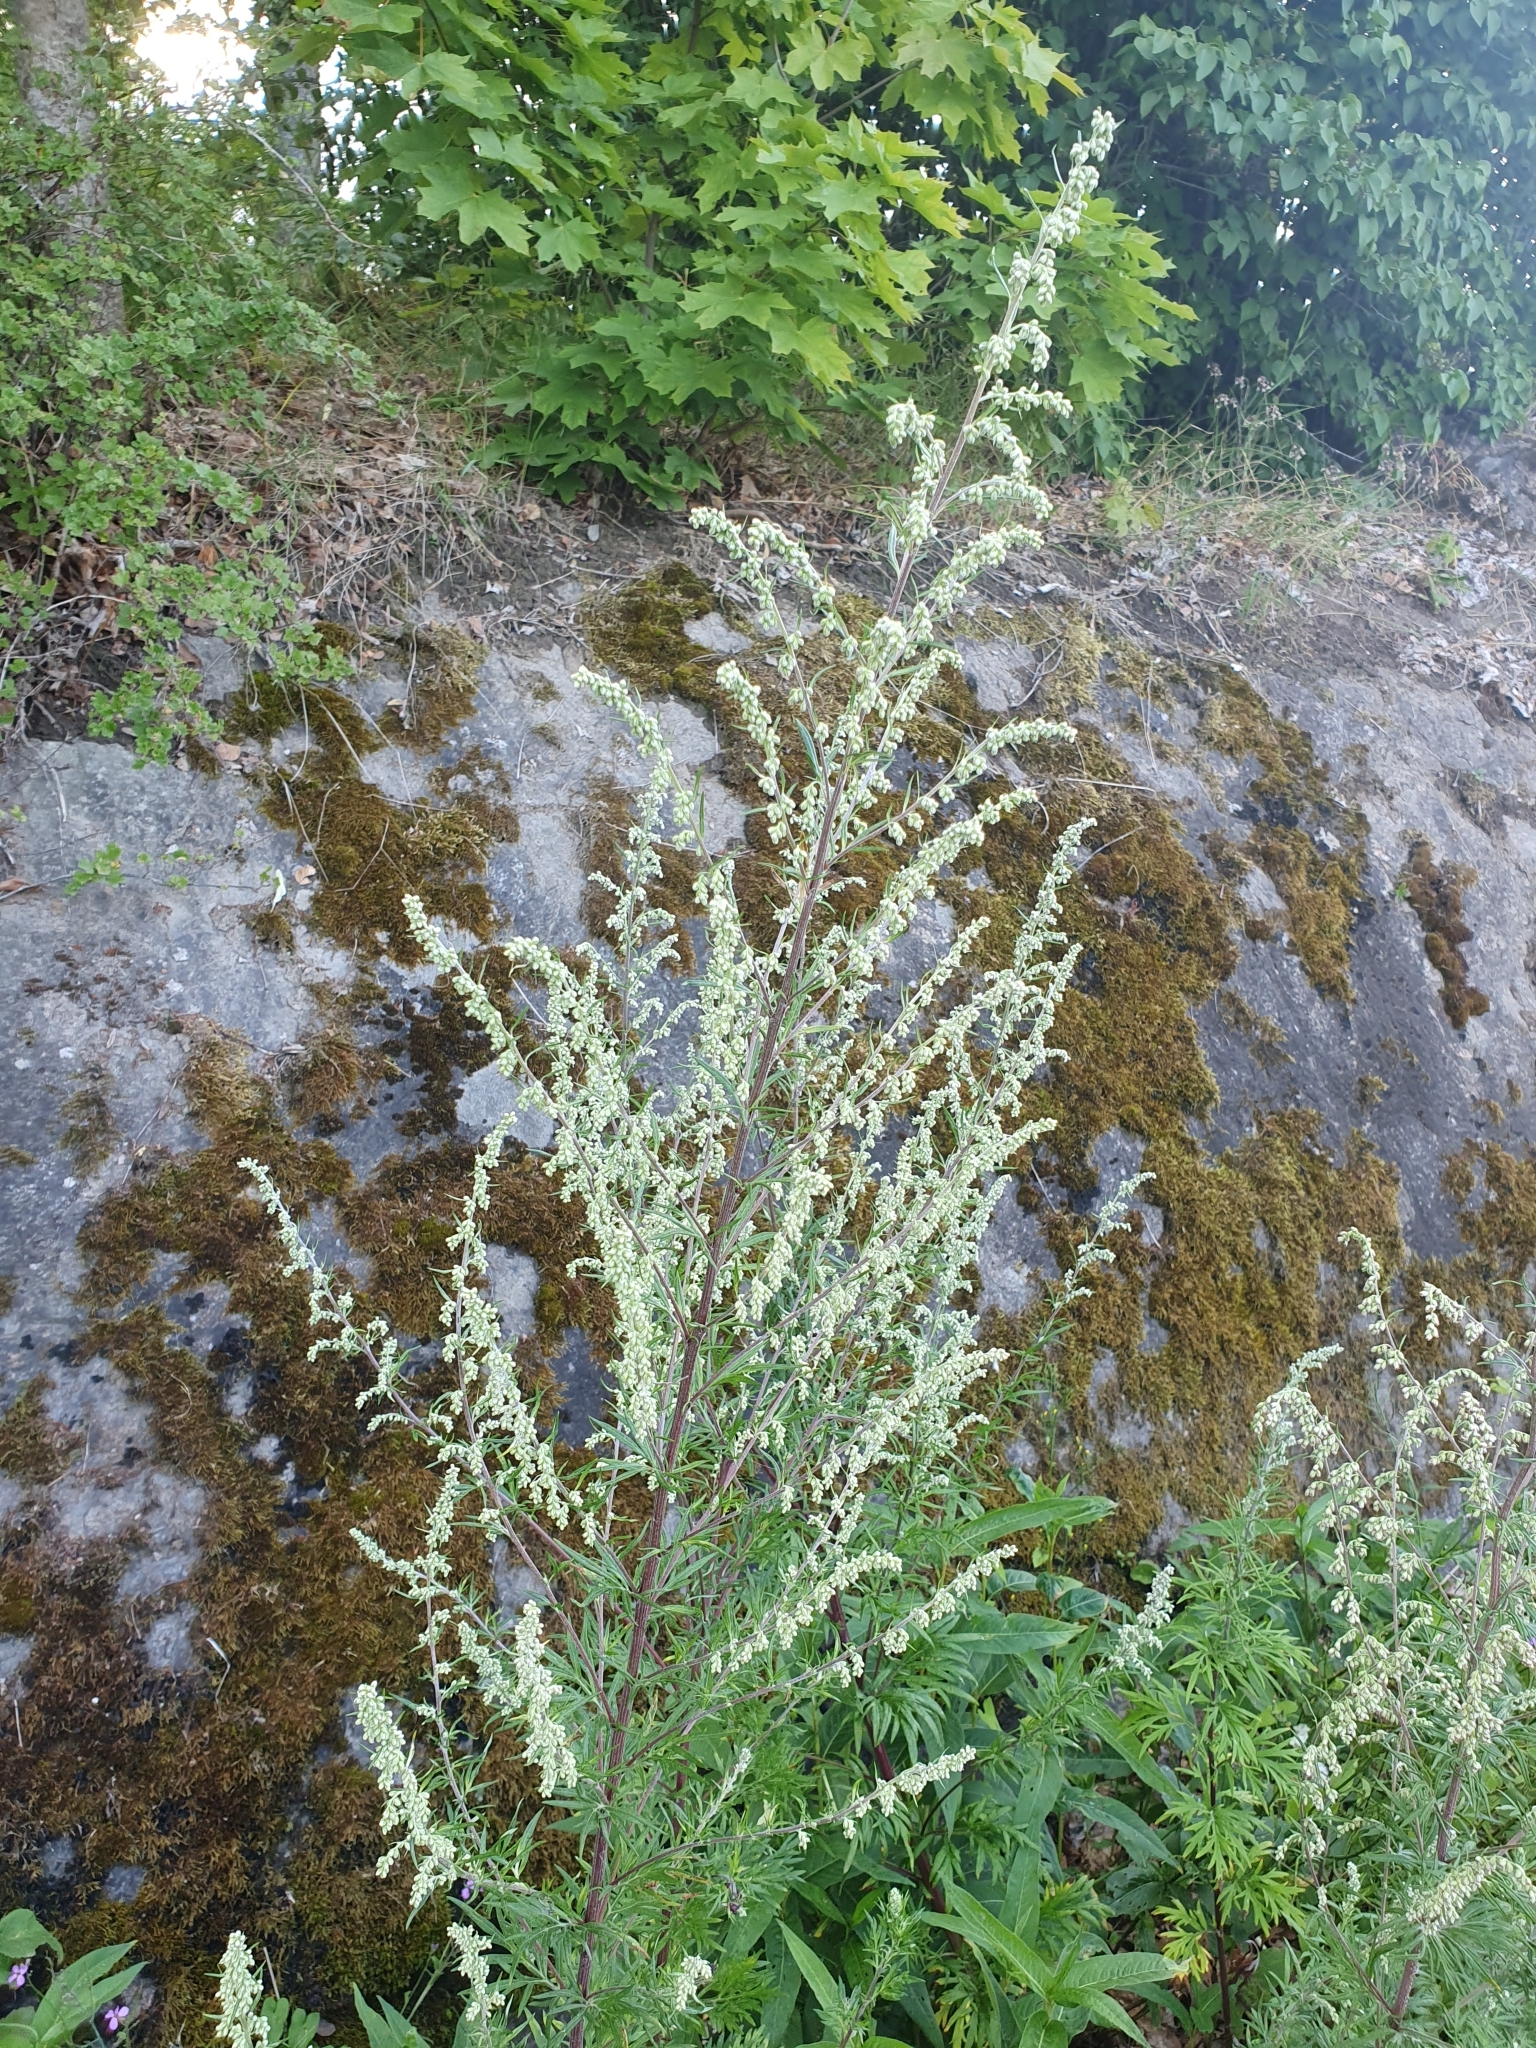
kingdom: Plantae
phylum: Tracheophyta
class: Magnoliopsida
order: Asterales
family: Asteraceae
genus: Artemisia
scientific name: Artemisia vulgaris
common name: Mugwort
